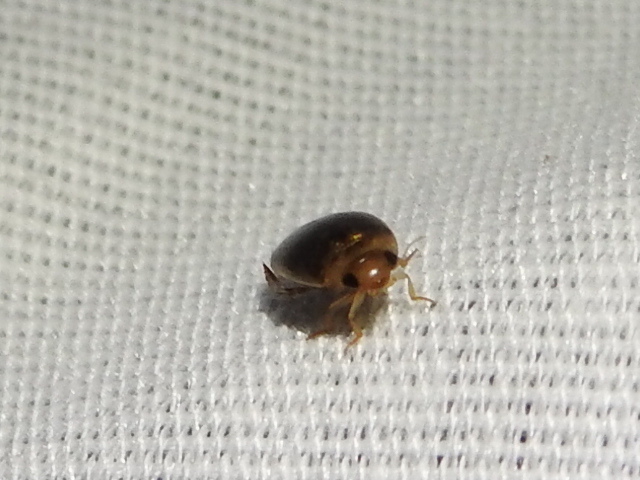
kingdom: Animalia
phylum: Arthropoda
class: Insecta
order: Coleoptera
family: Dytiscidae
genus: Laccophilus
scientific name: Laccophilus proximus
